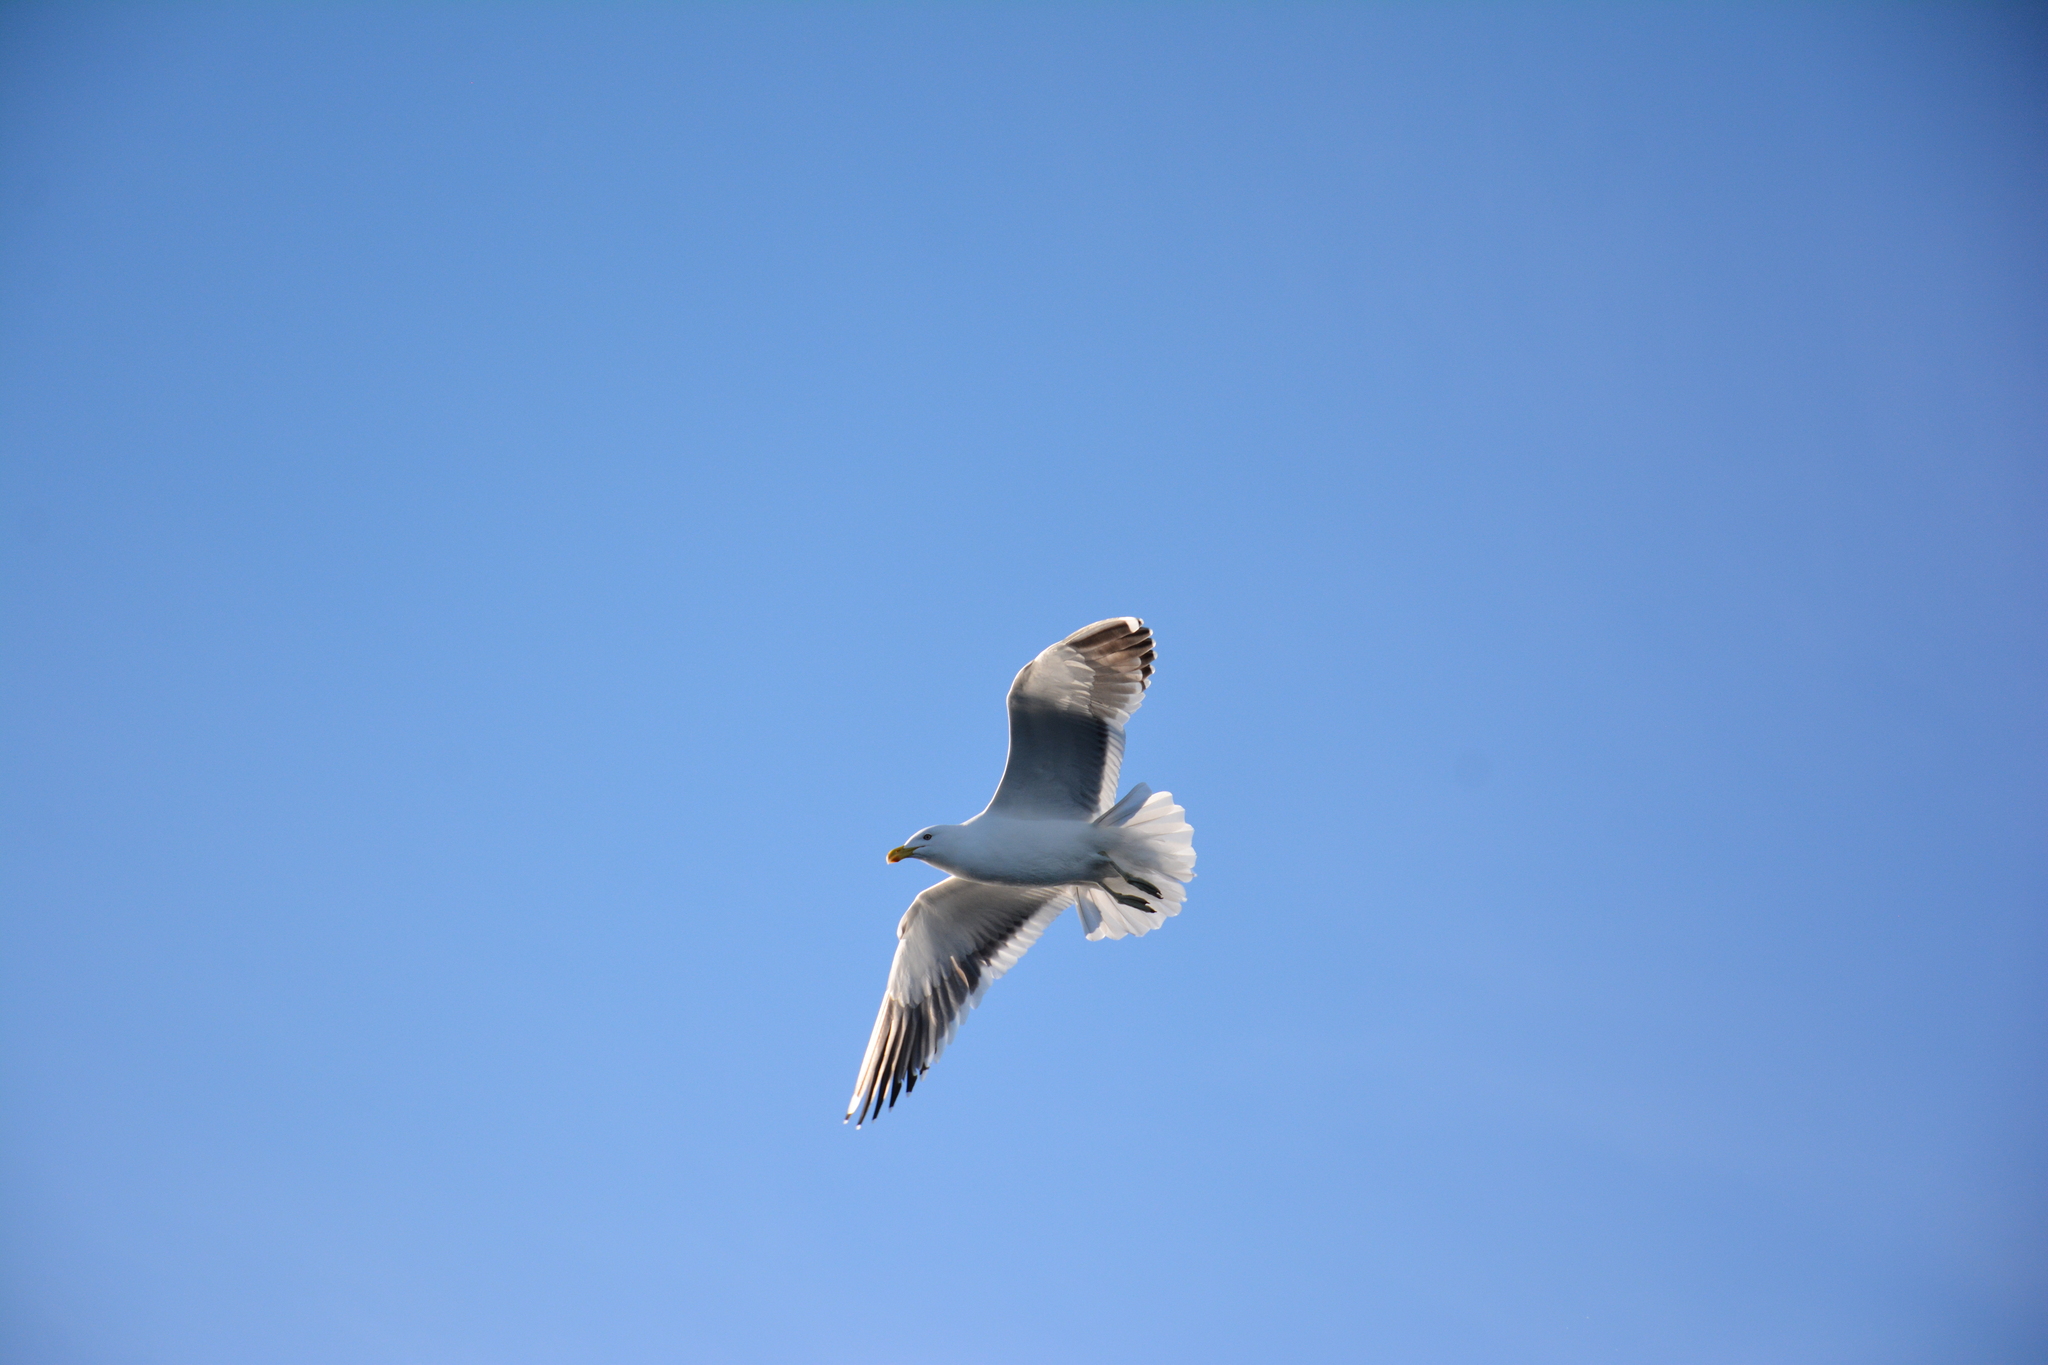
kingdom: Animalia
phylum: Chordata
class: Aves
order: Charadriiformes
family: Laridae
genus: Larus
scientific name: Larus dominicanus
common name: Kelp gull
